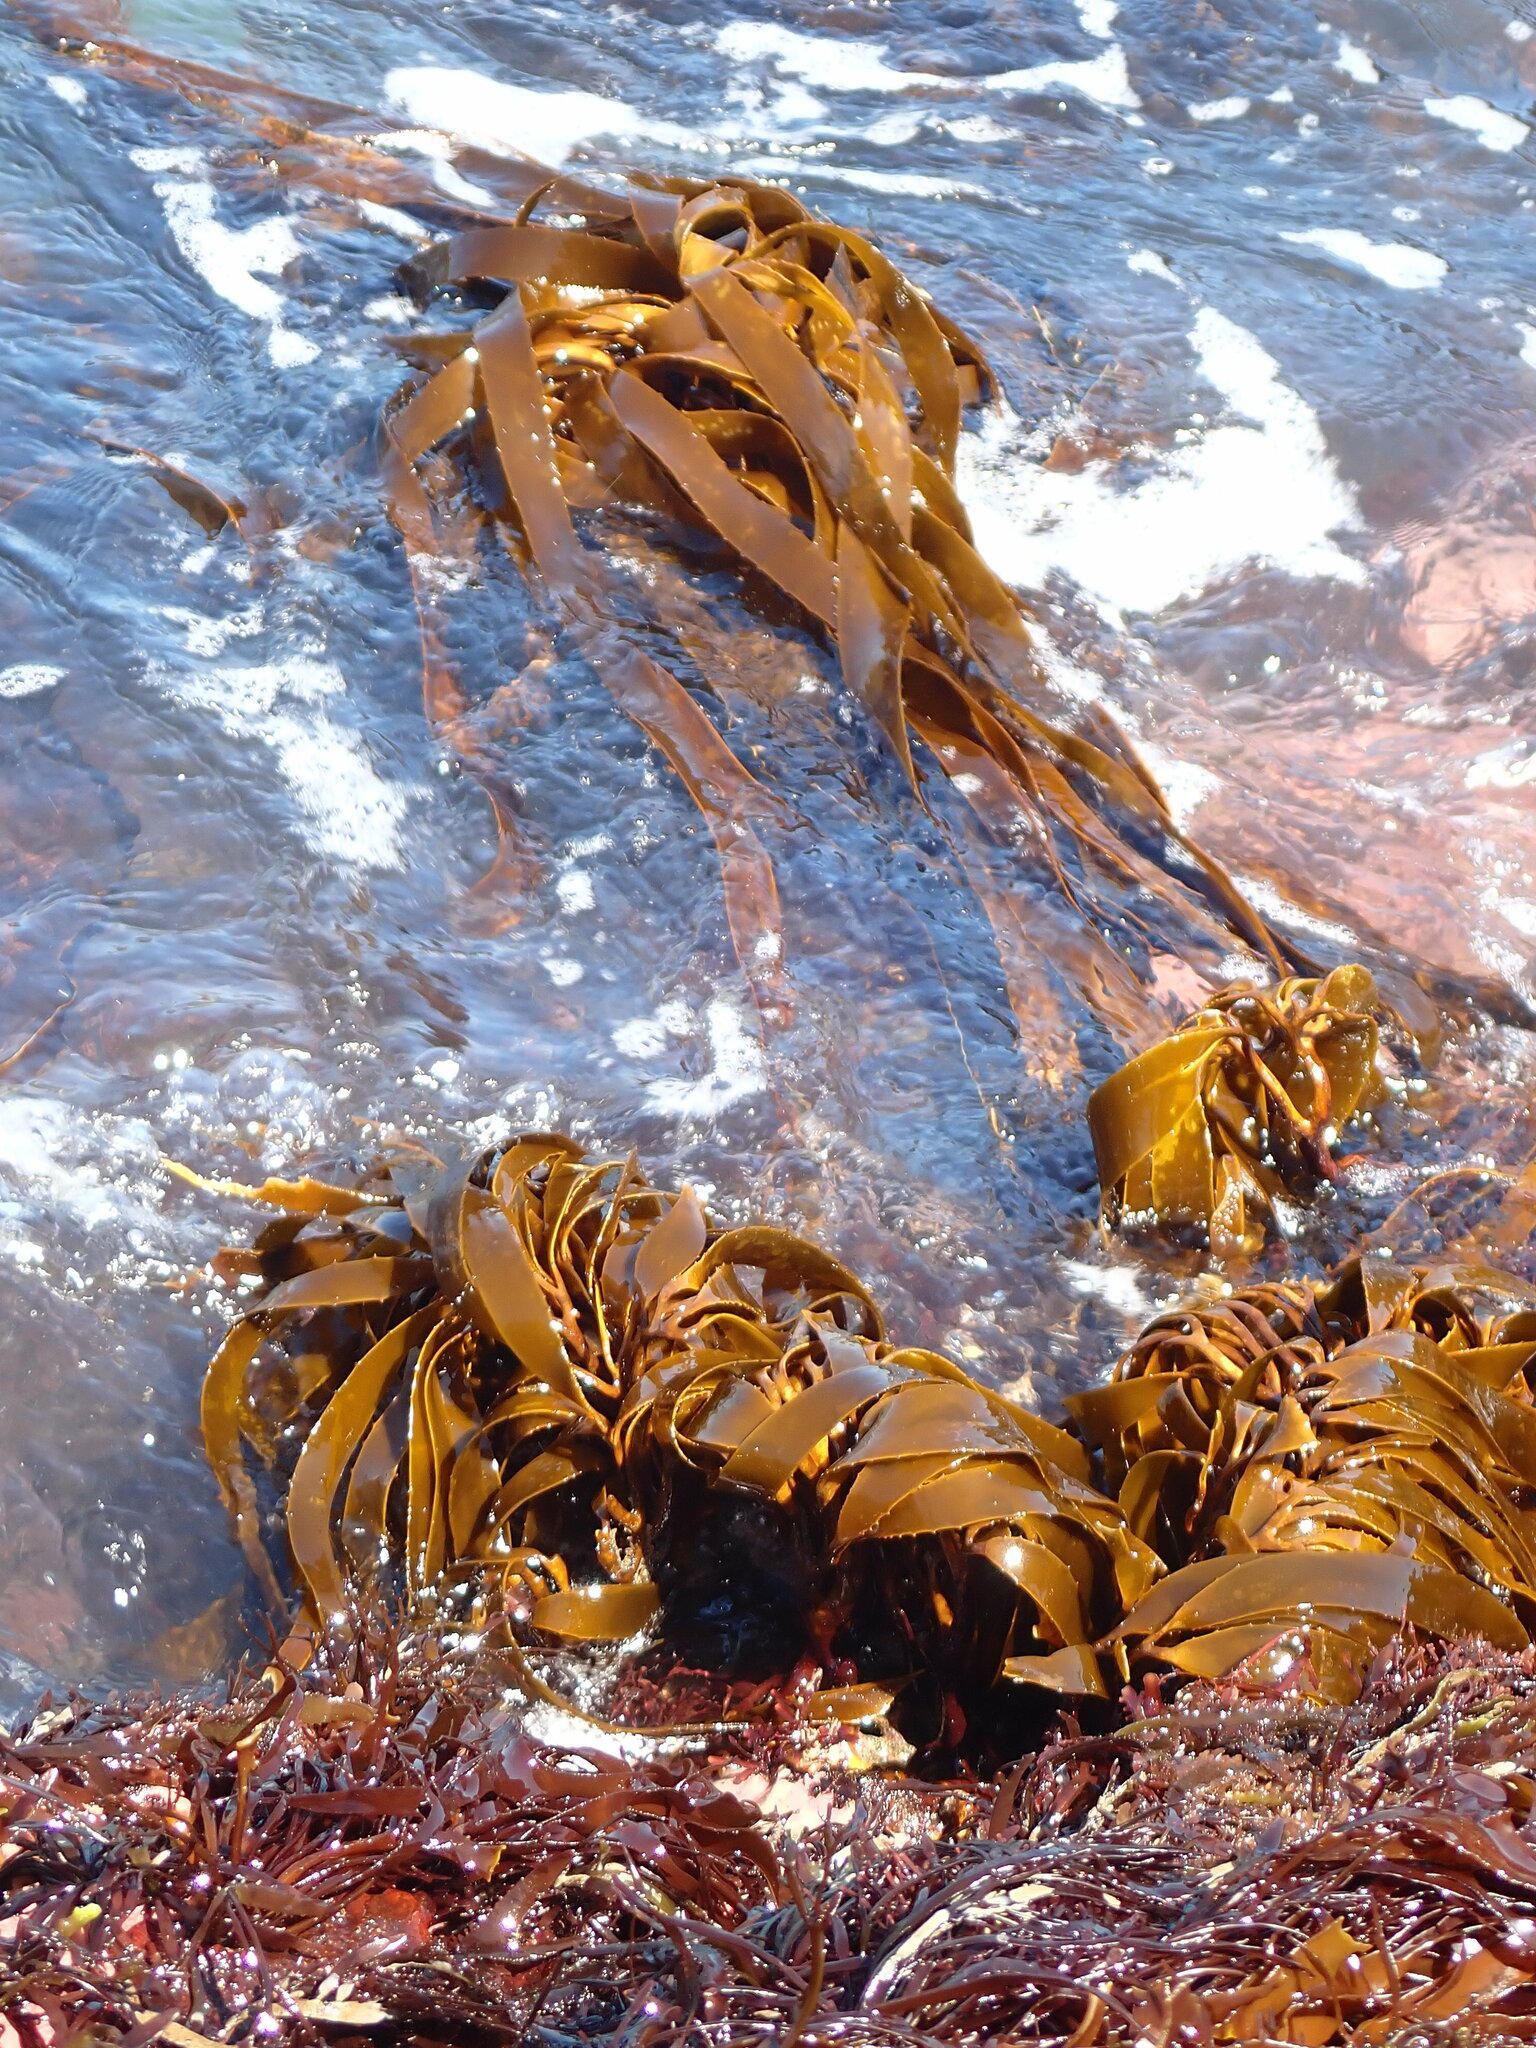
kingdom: Chromista
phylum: Ochrophyta
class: Phaeophyceae
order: Laminariales
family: Lessoniaceae
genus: Lessonia
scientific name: Lessonia
